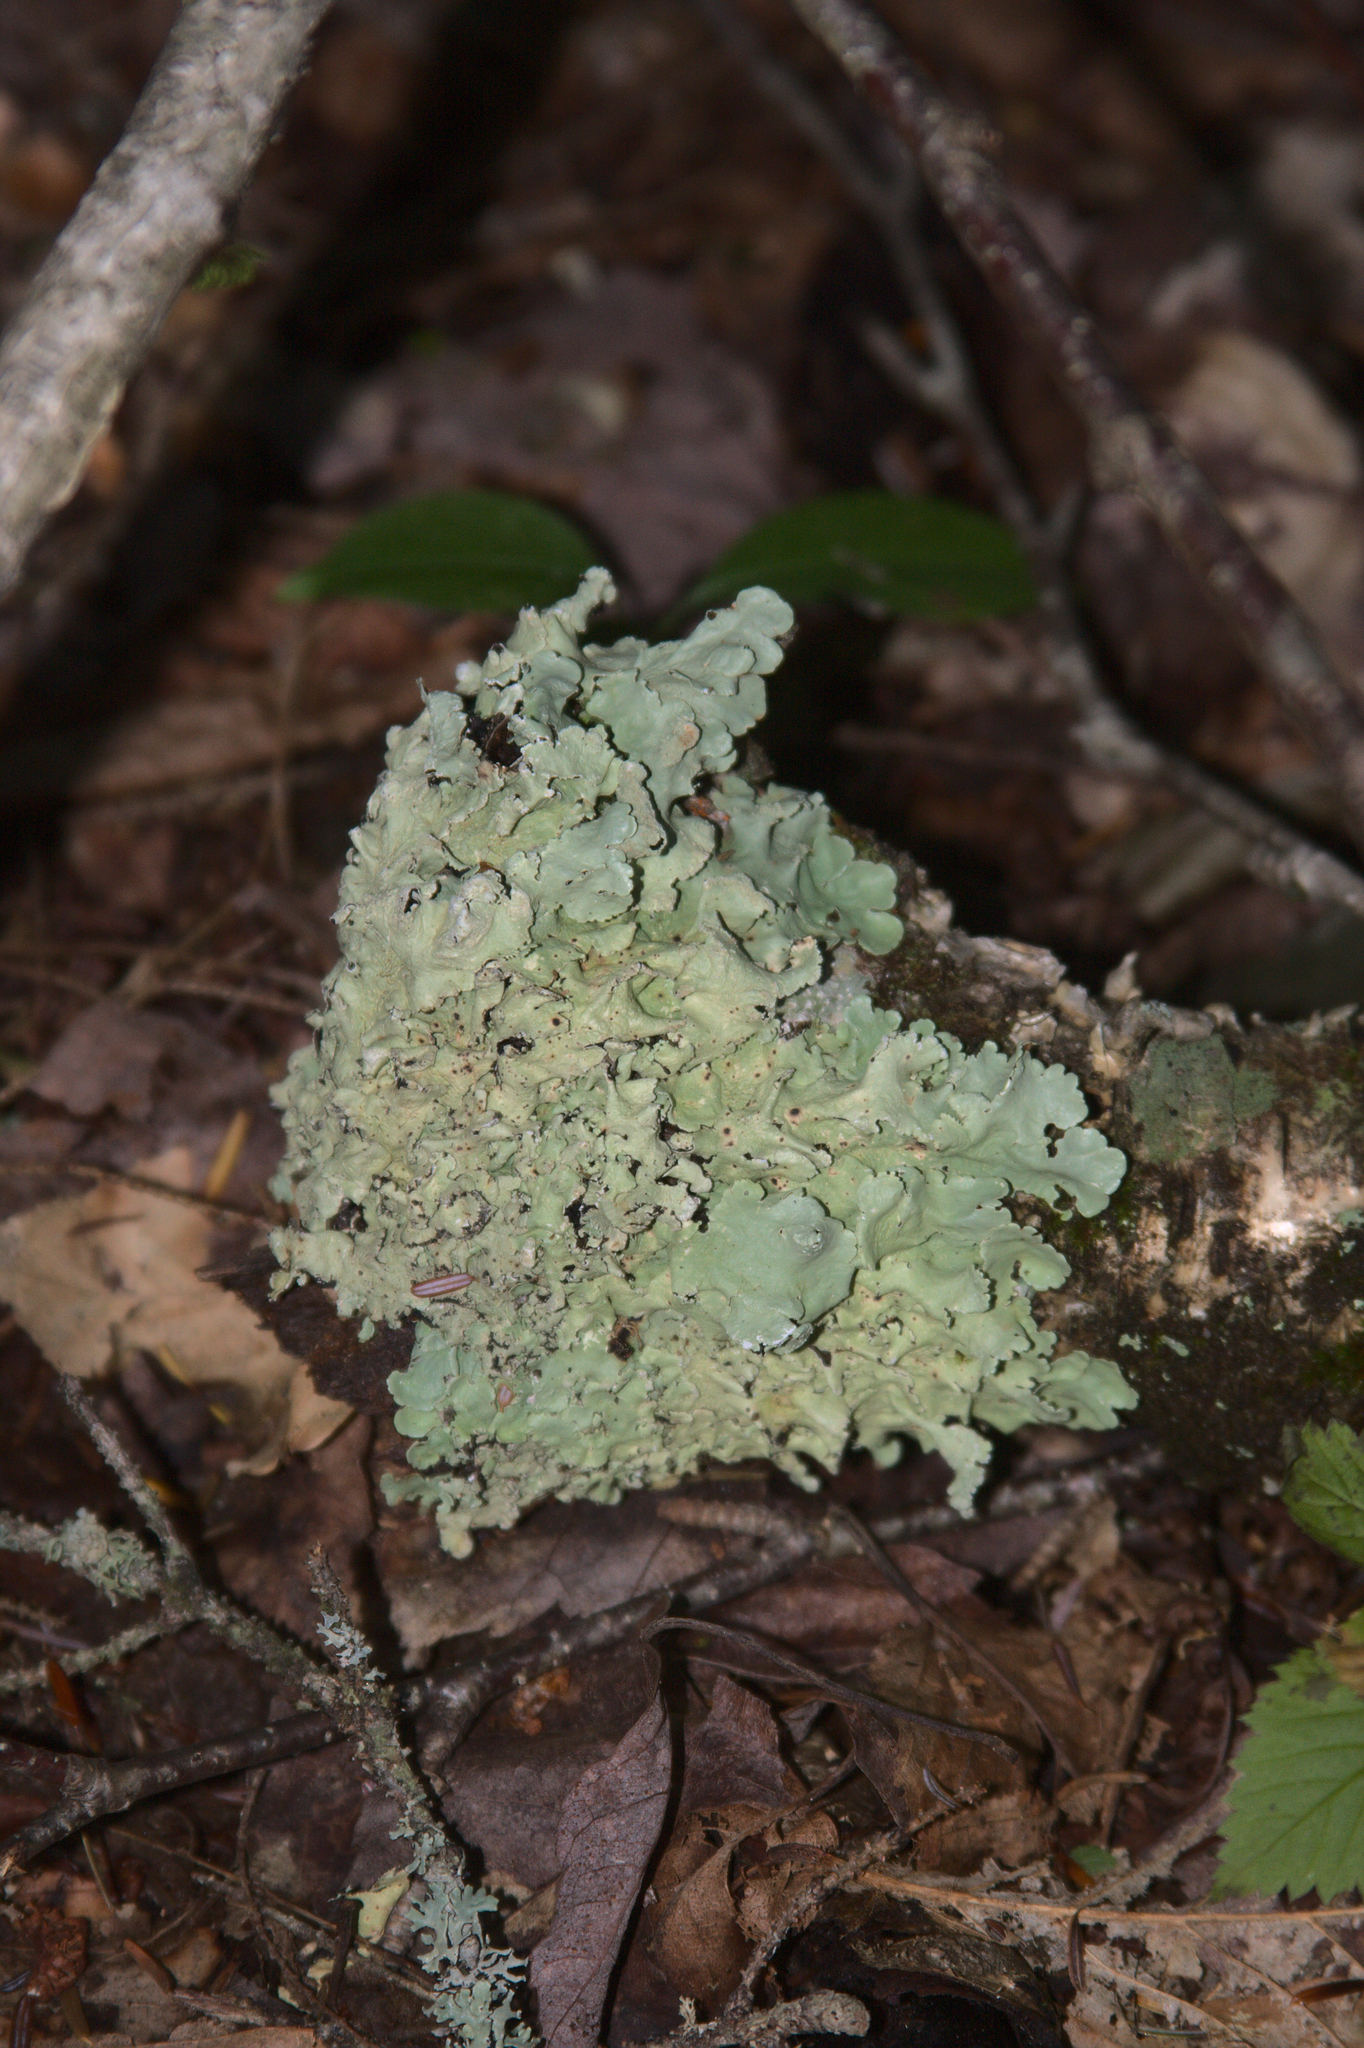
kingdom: Fungi
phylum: Ascomycota
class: Lecanoromycetes
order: Lecanorales
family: Parmeliaceae
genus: Flavoparmelia
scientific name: Flavoparmelia caperata
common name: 40-mile per hour lichen
